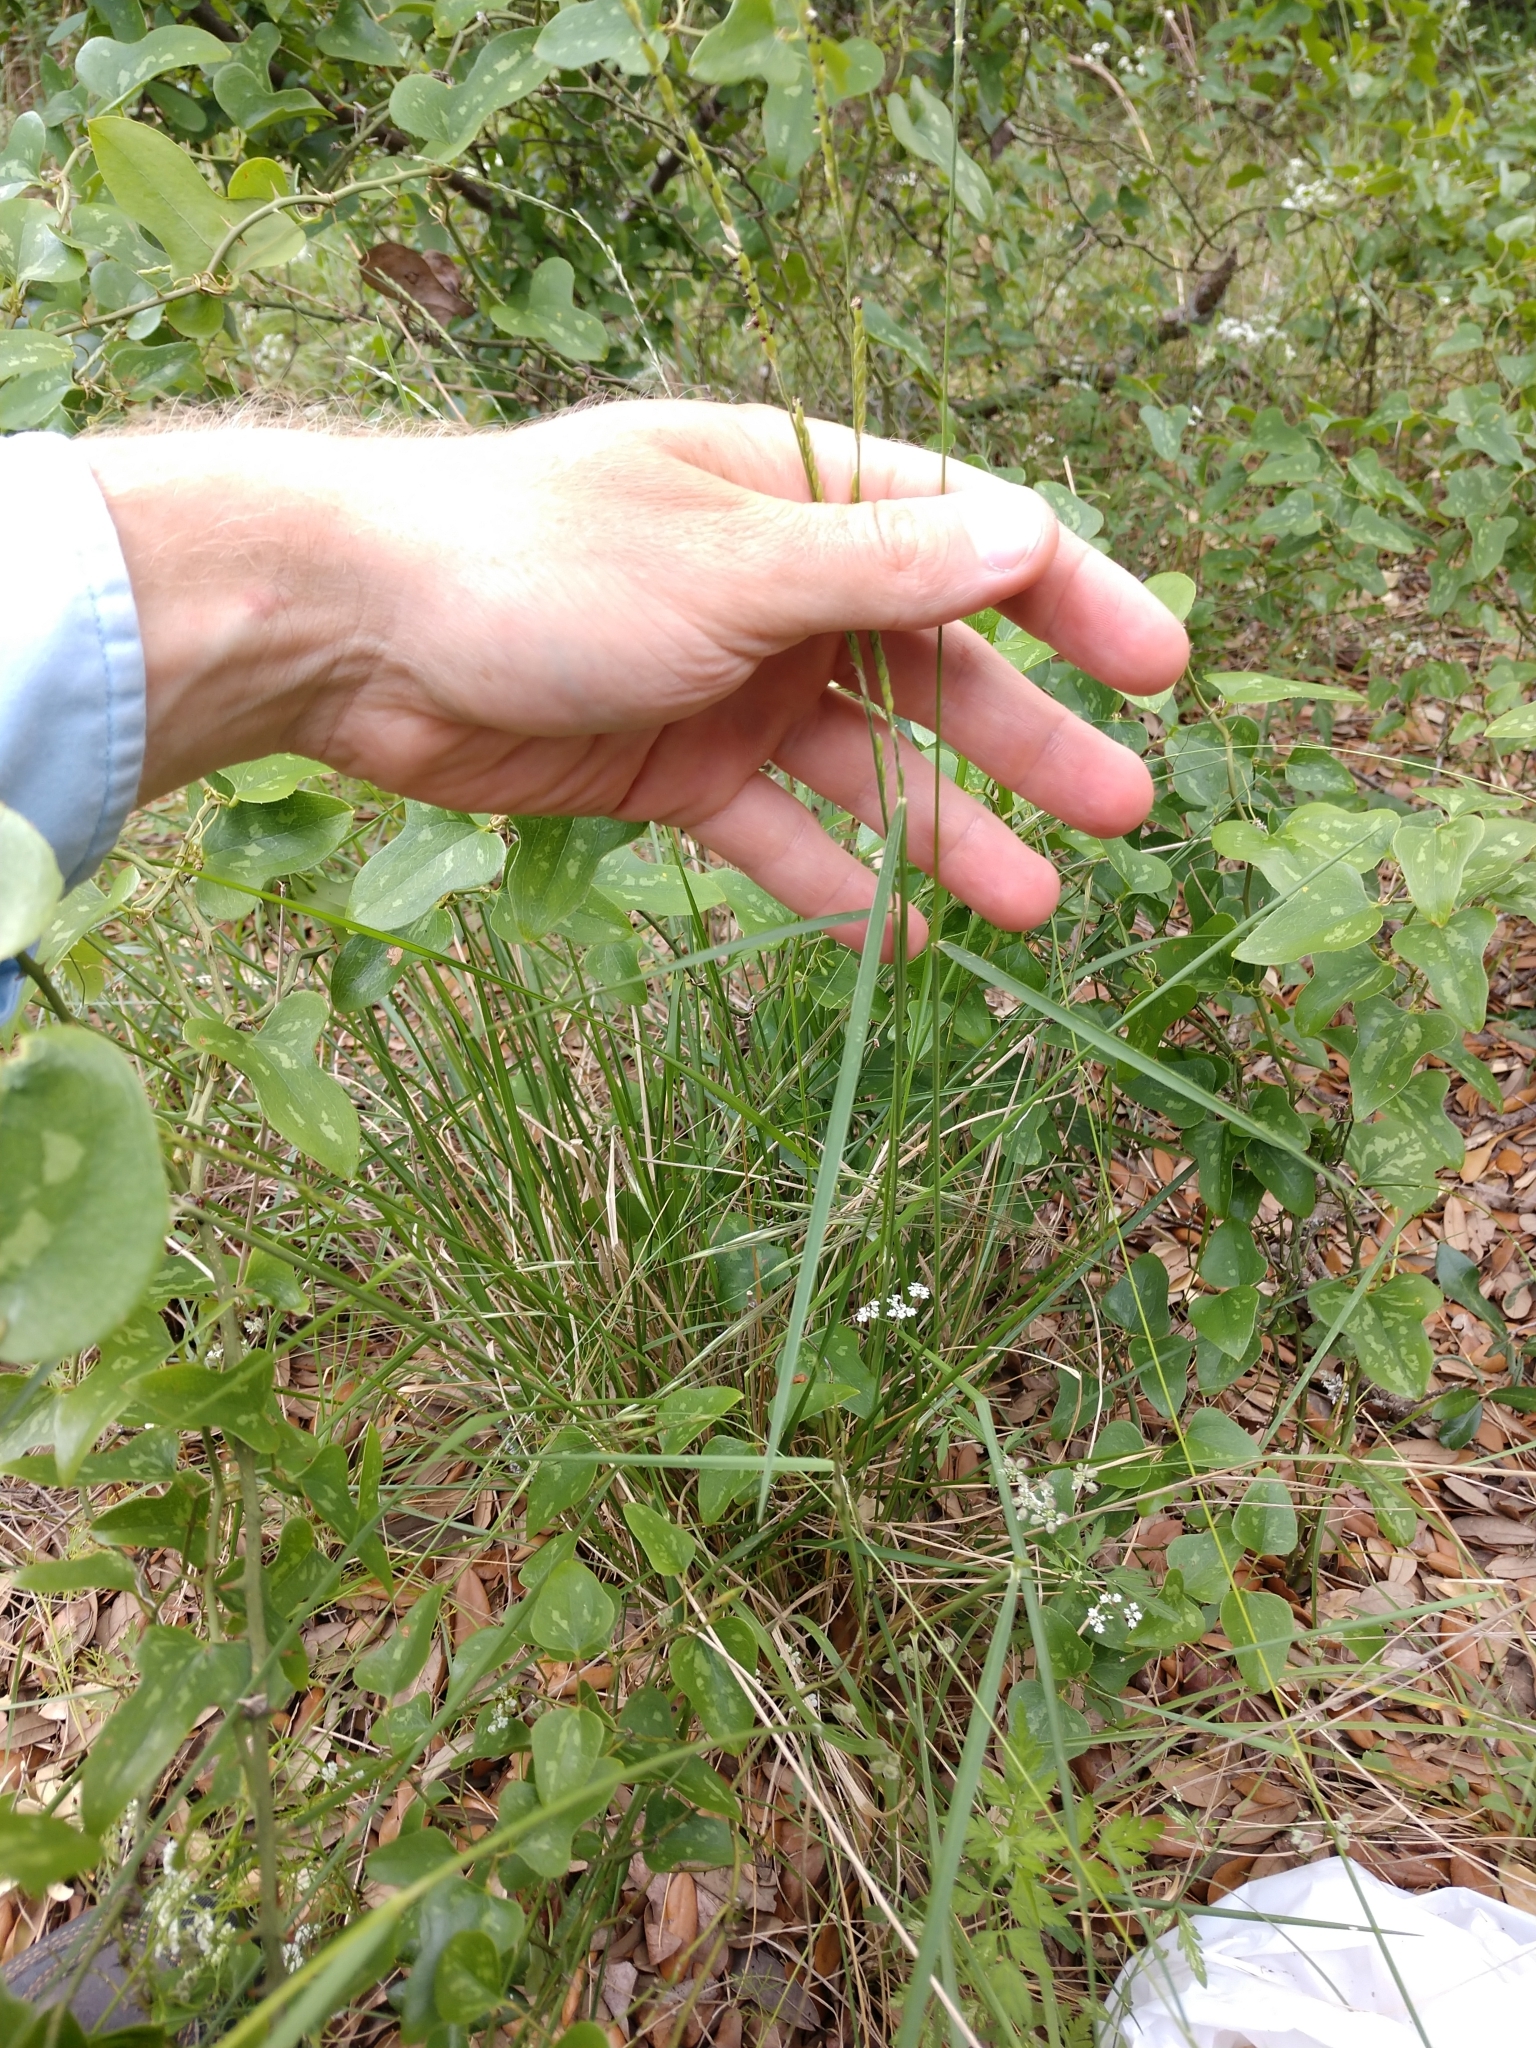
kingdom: Plantae
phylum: Tracheophyta
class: Liliopsida
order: Poales
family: Poaceae
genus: Eriochloa
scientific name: Eriochloa sericea
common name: Texas cup grass
